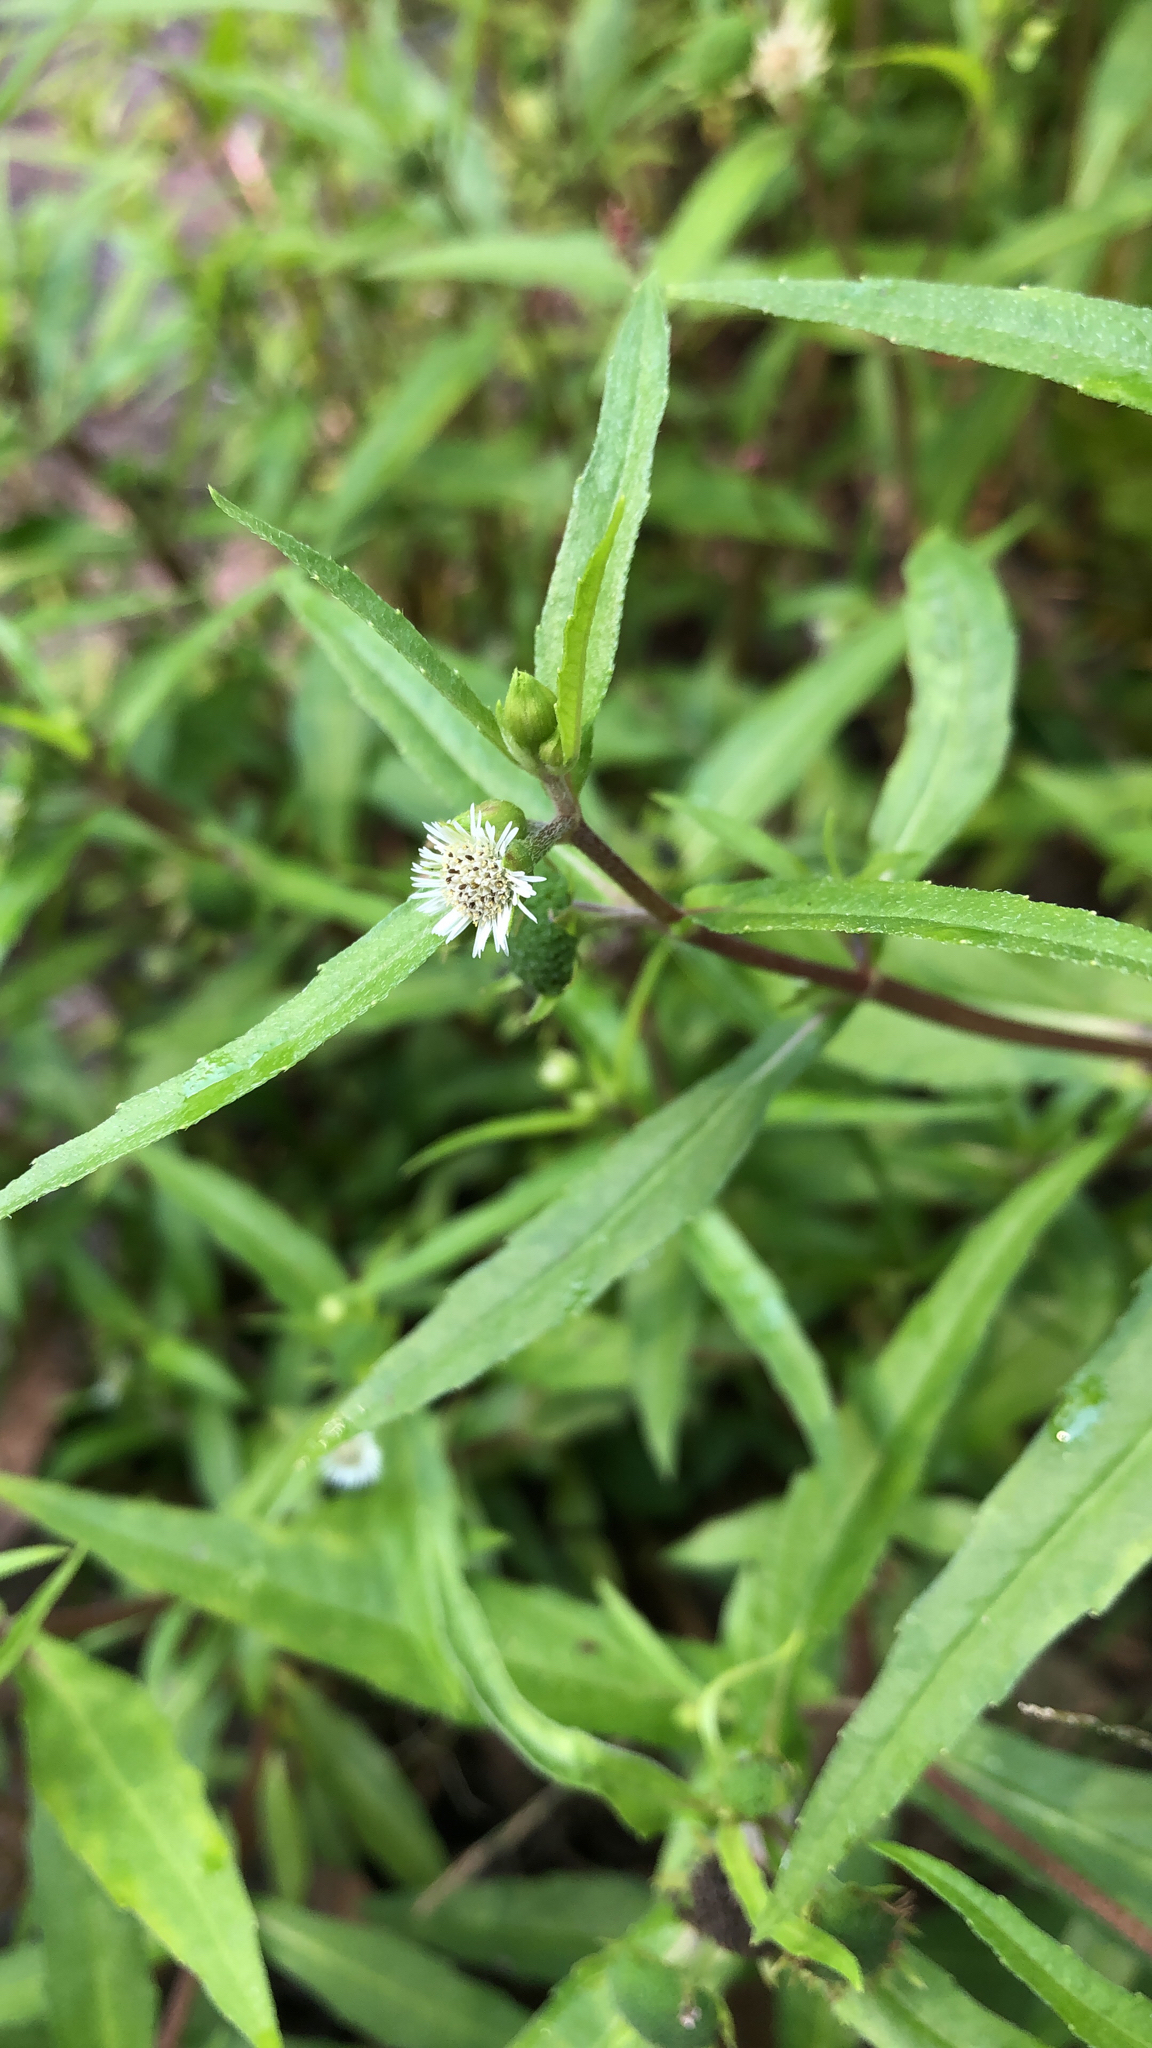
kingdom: Plantae
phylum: Tracheophyta
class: Magnoliopsida
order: Asterales
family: Asteraceae
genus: Eclipta
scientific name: Eclipta prostrata
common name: False daisy
